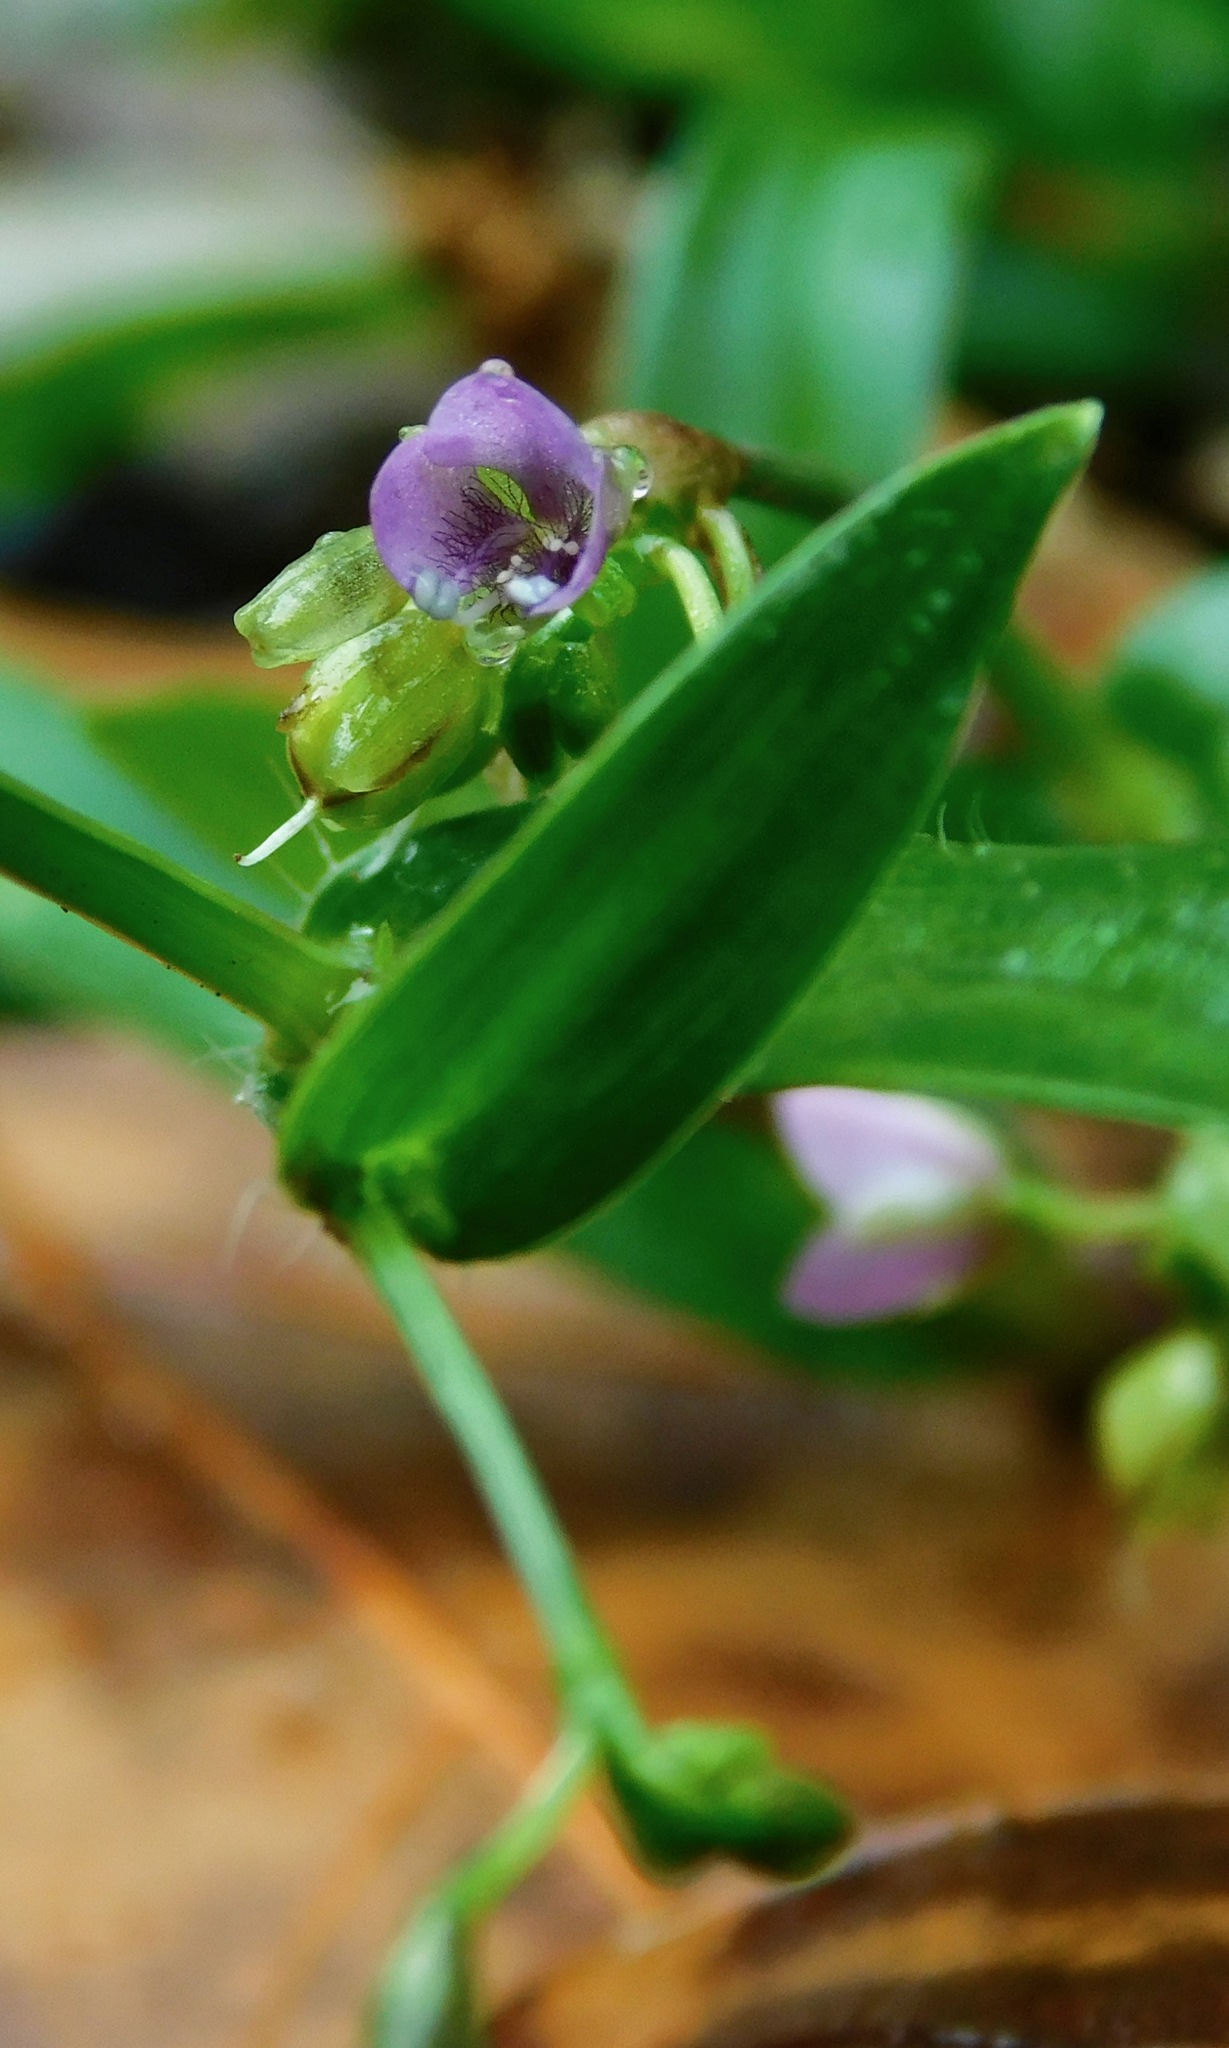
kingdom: Plantae
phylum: Tracheophyta
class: Liliopsida
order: Commelinales
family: Commelinaceae
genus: Murdannia
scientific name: Murdannia nudiflora
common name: Nakedstem dewflower
